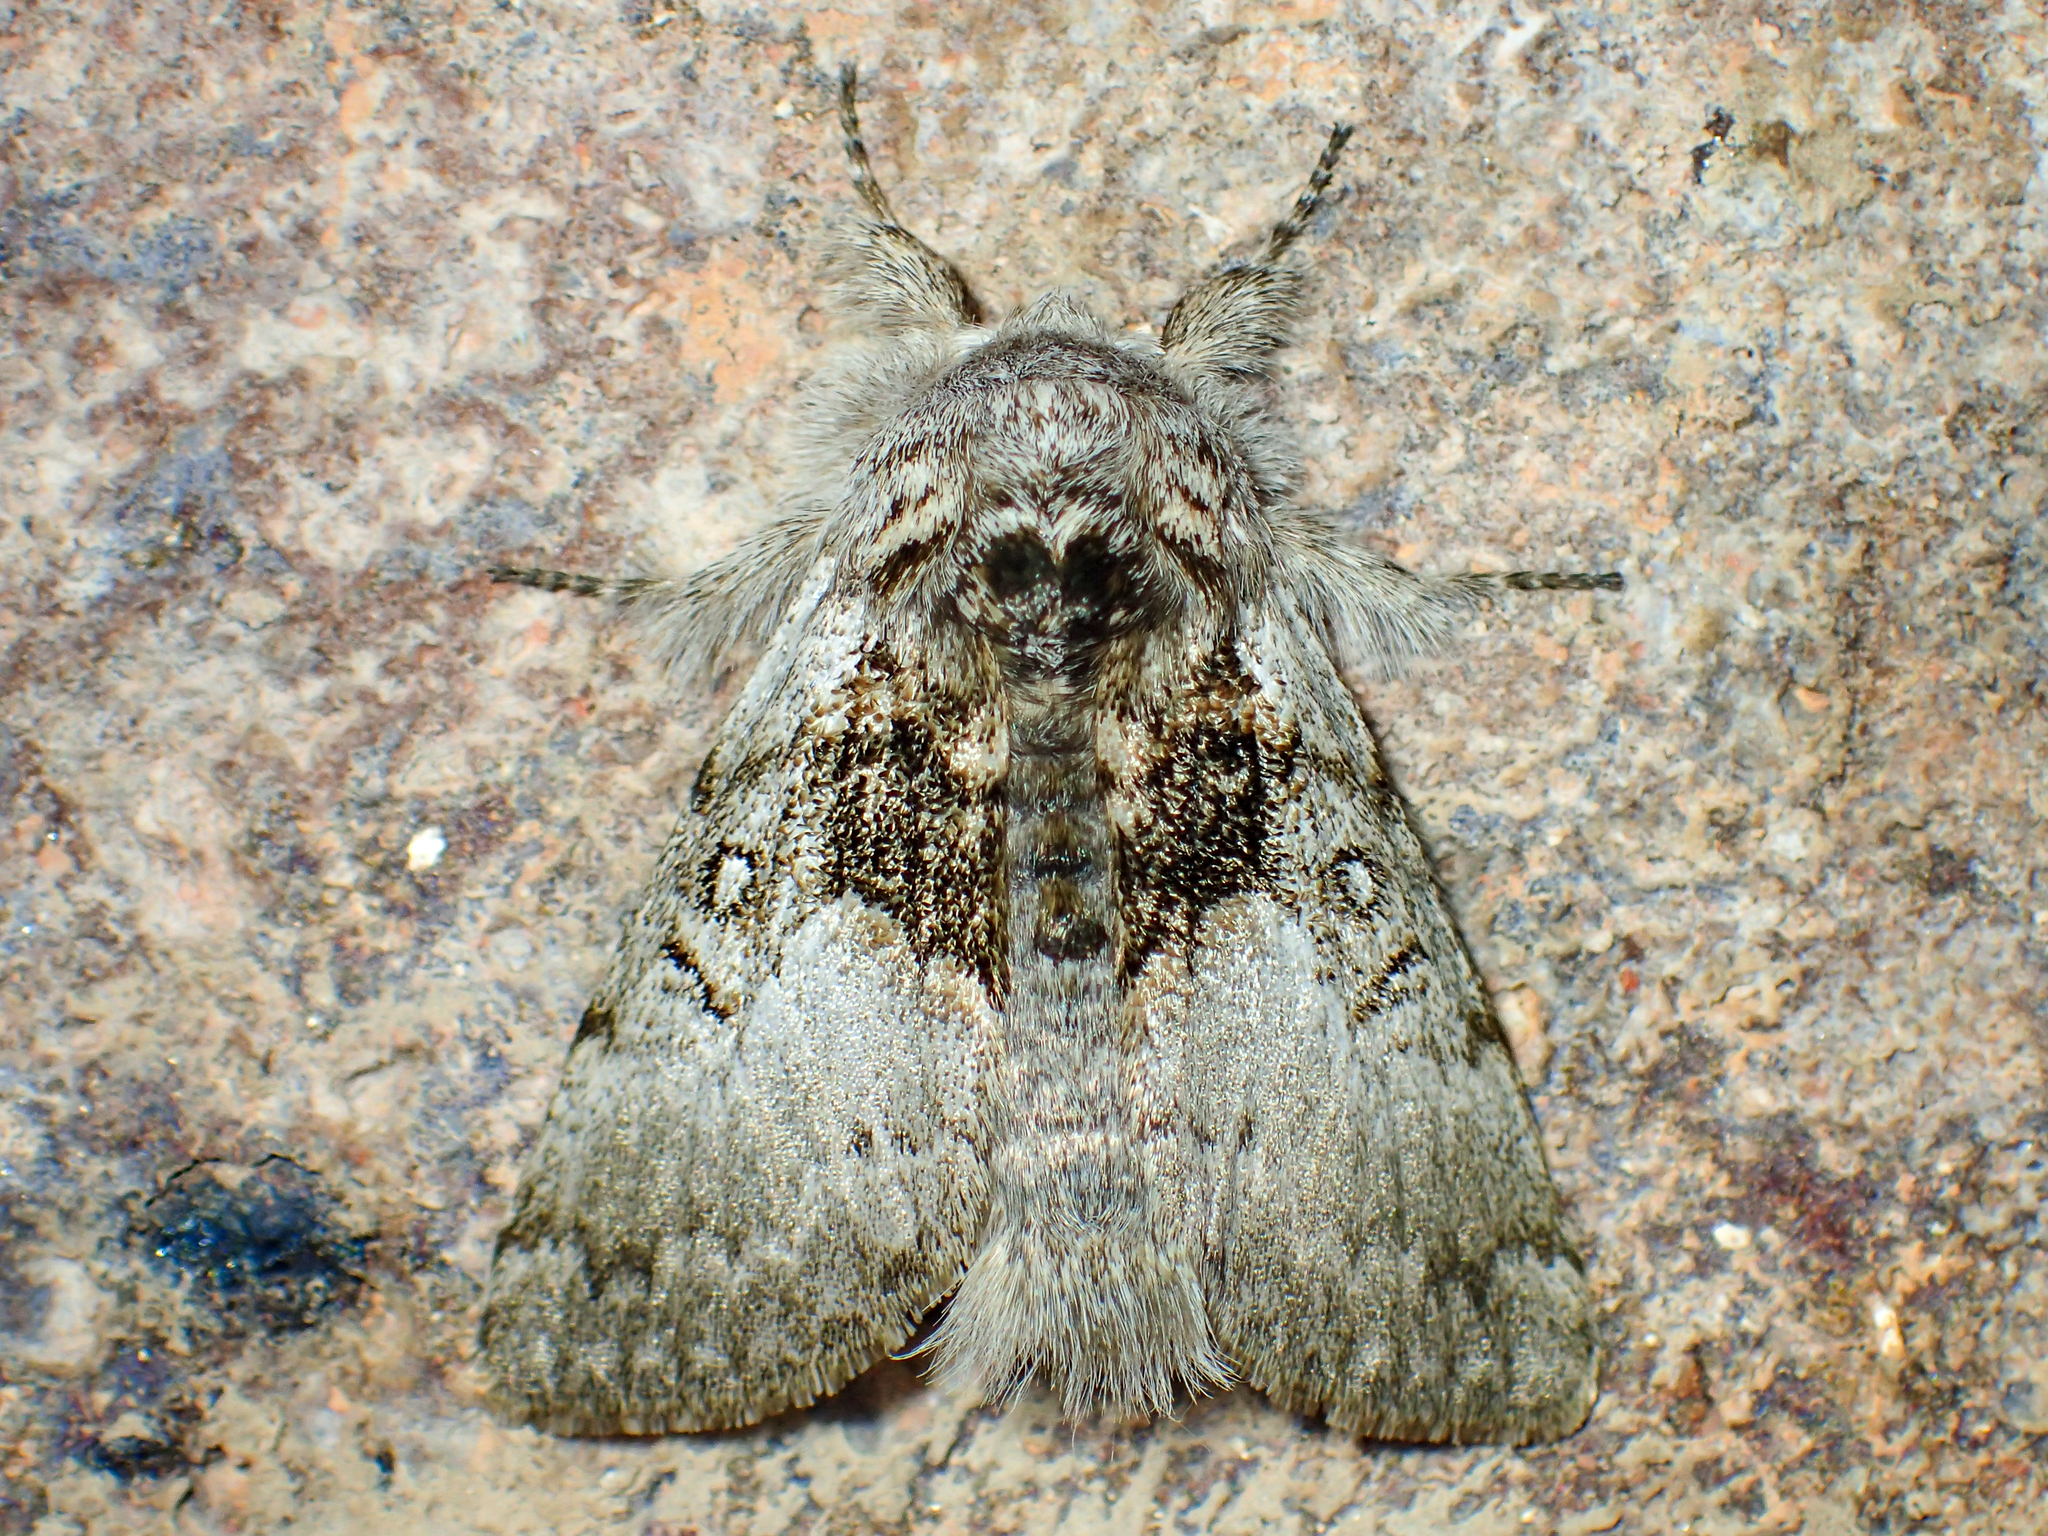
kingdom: Animalia
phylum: Arthropoda
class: Insecta
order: Lepidoptera
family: Noctuidae
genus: Colocasia
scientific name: Colocasia flavicornis
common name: Saddled yellowhorn
